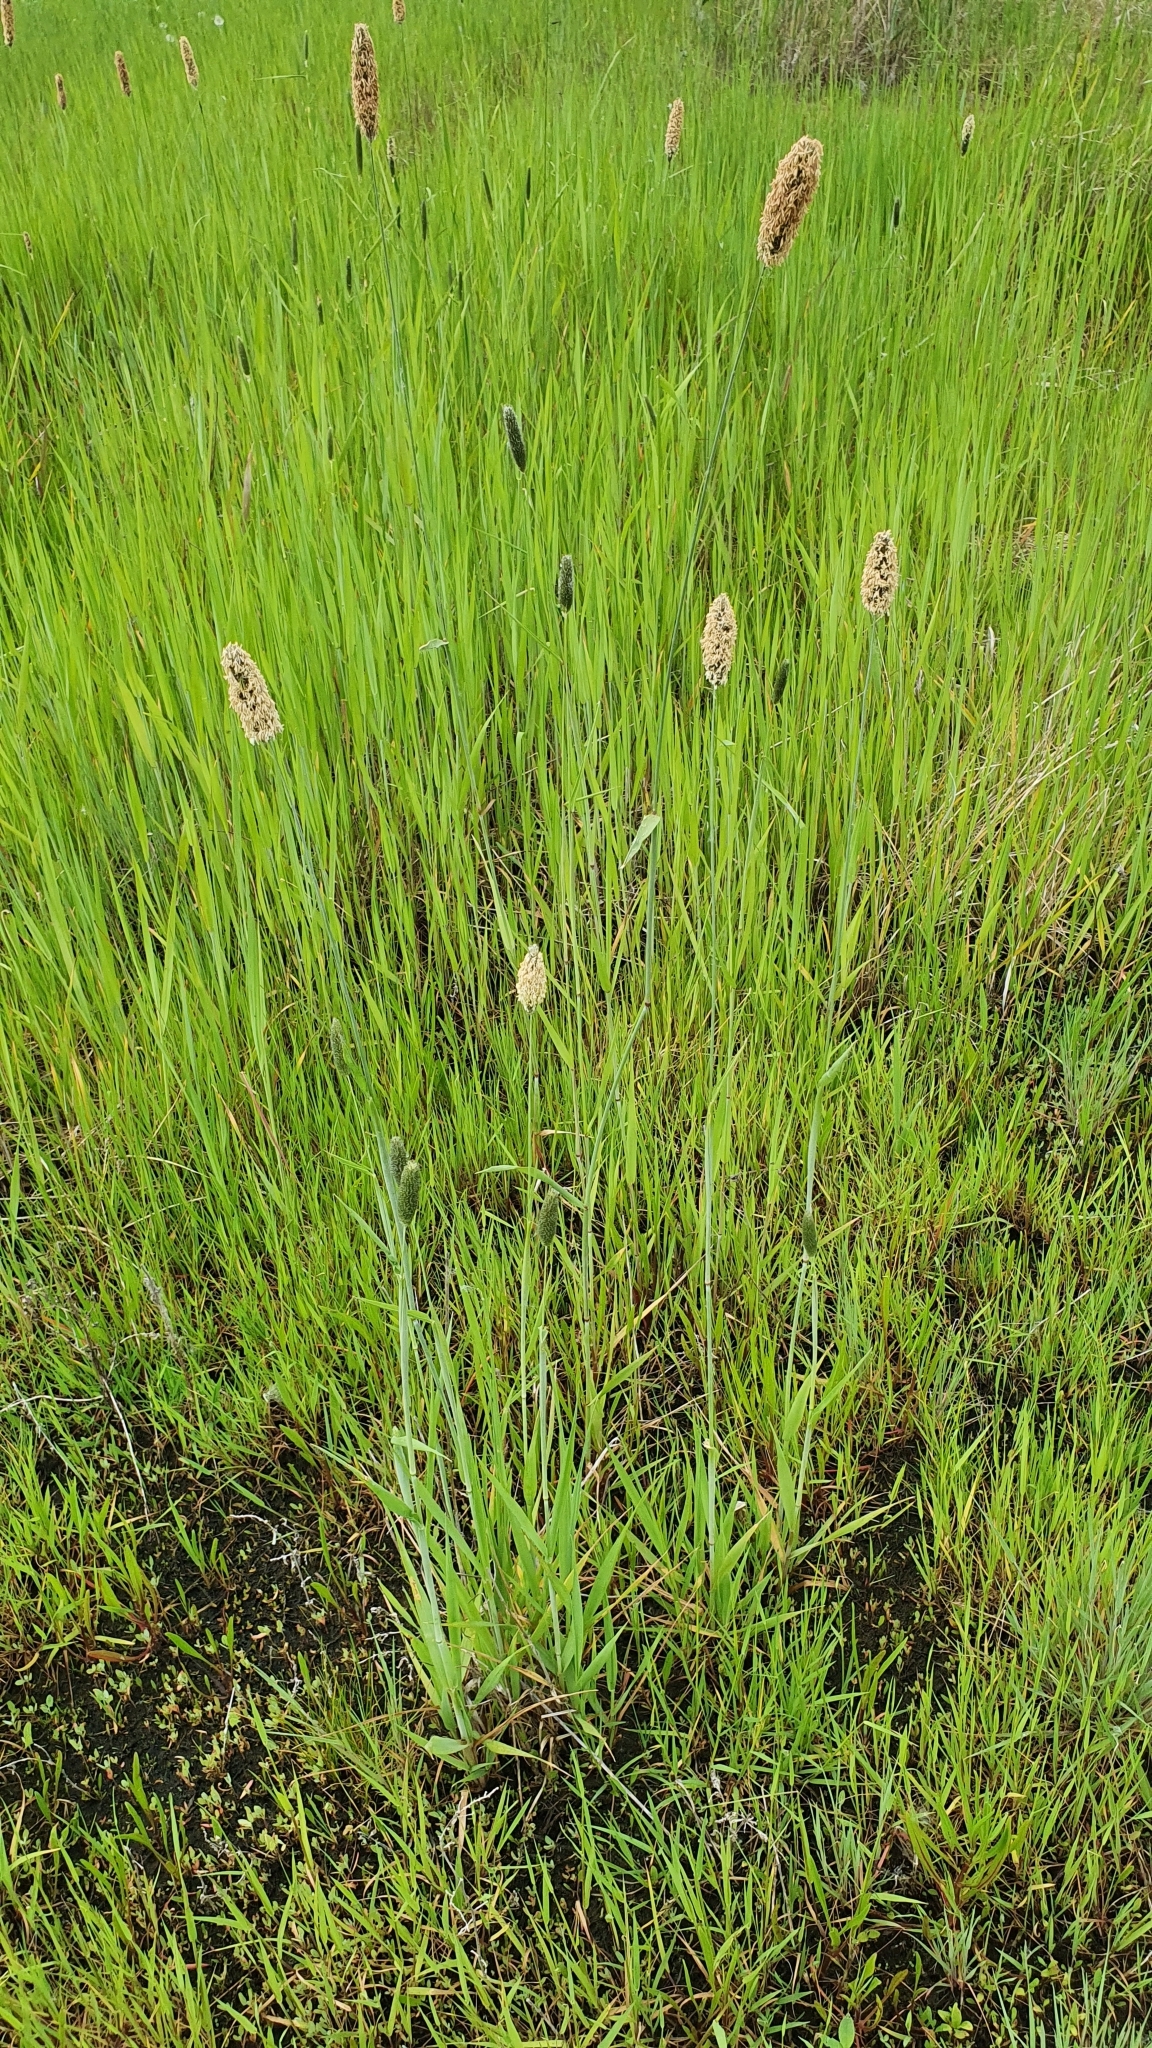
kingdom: Plantae
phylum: Tracheophyta
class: Liliopsida
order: Poales
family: Poaceae
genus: Alopecurus
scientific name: Alopecurus pratensis
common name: Meadow foxtail
